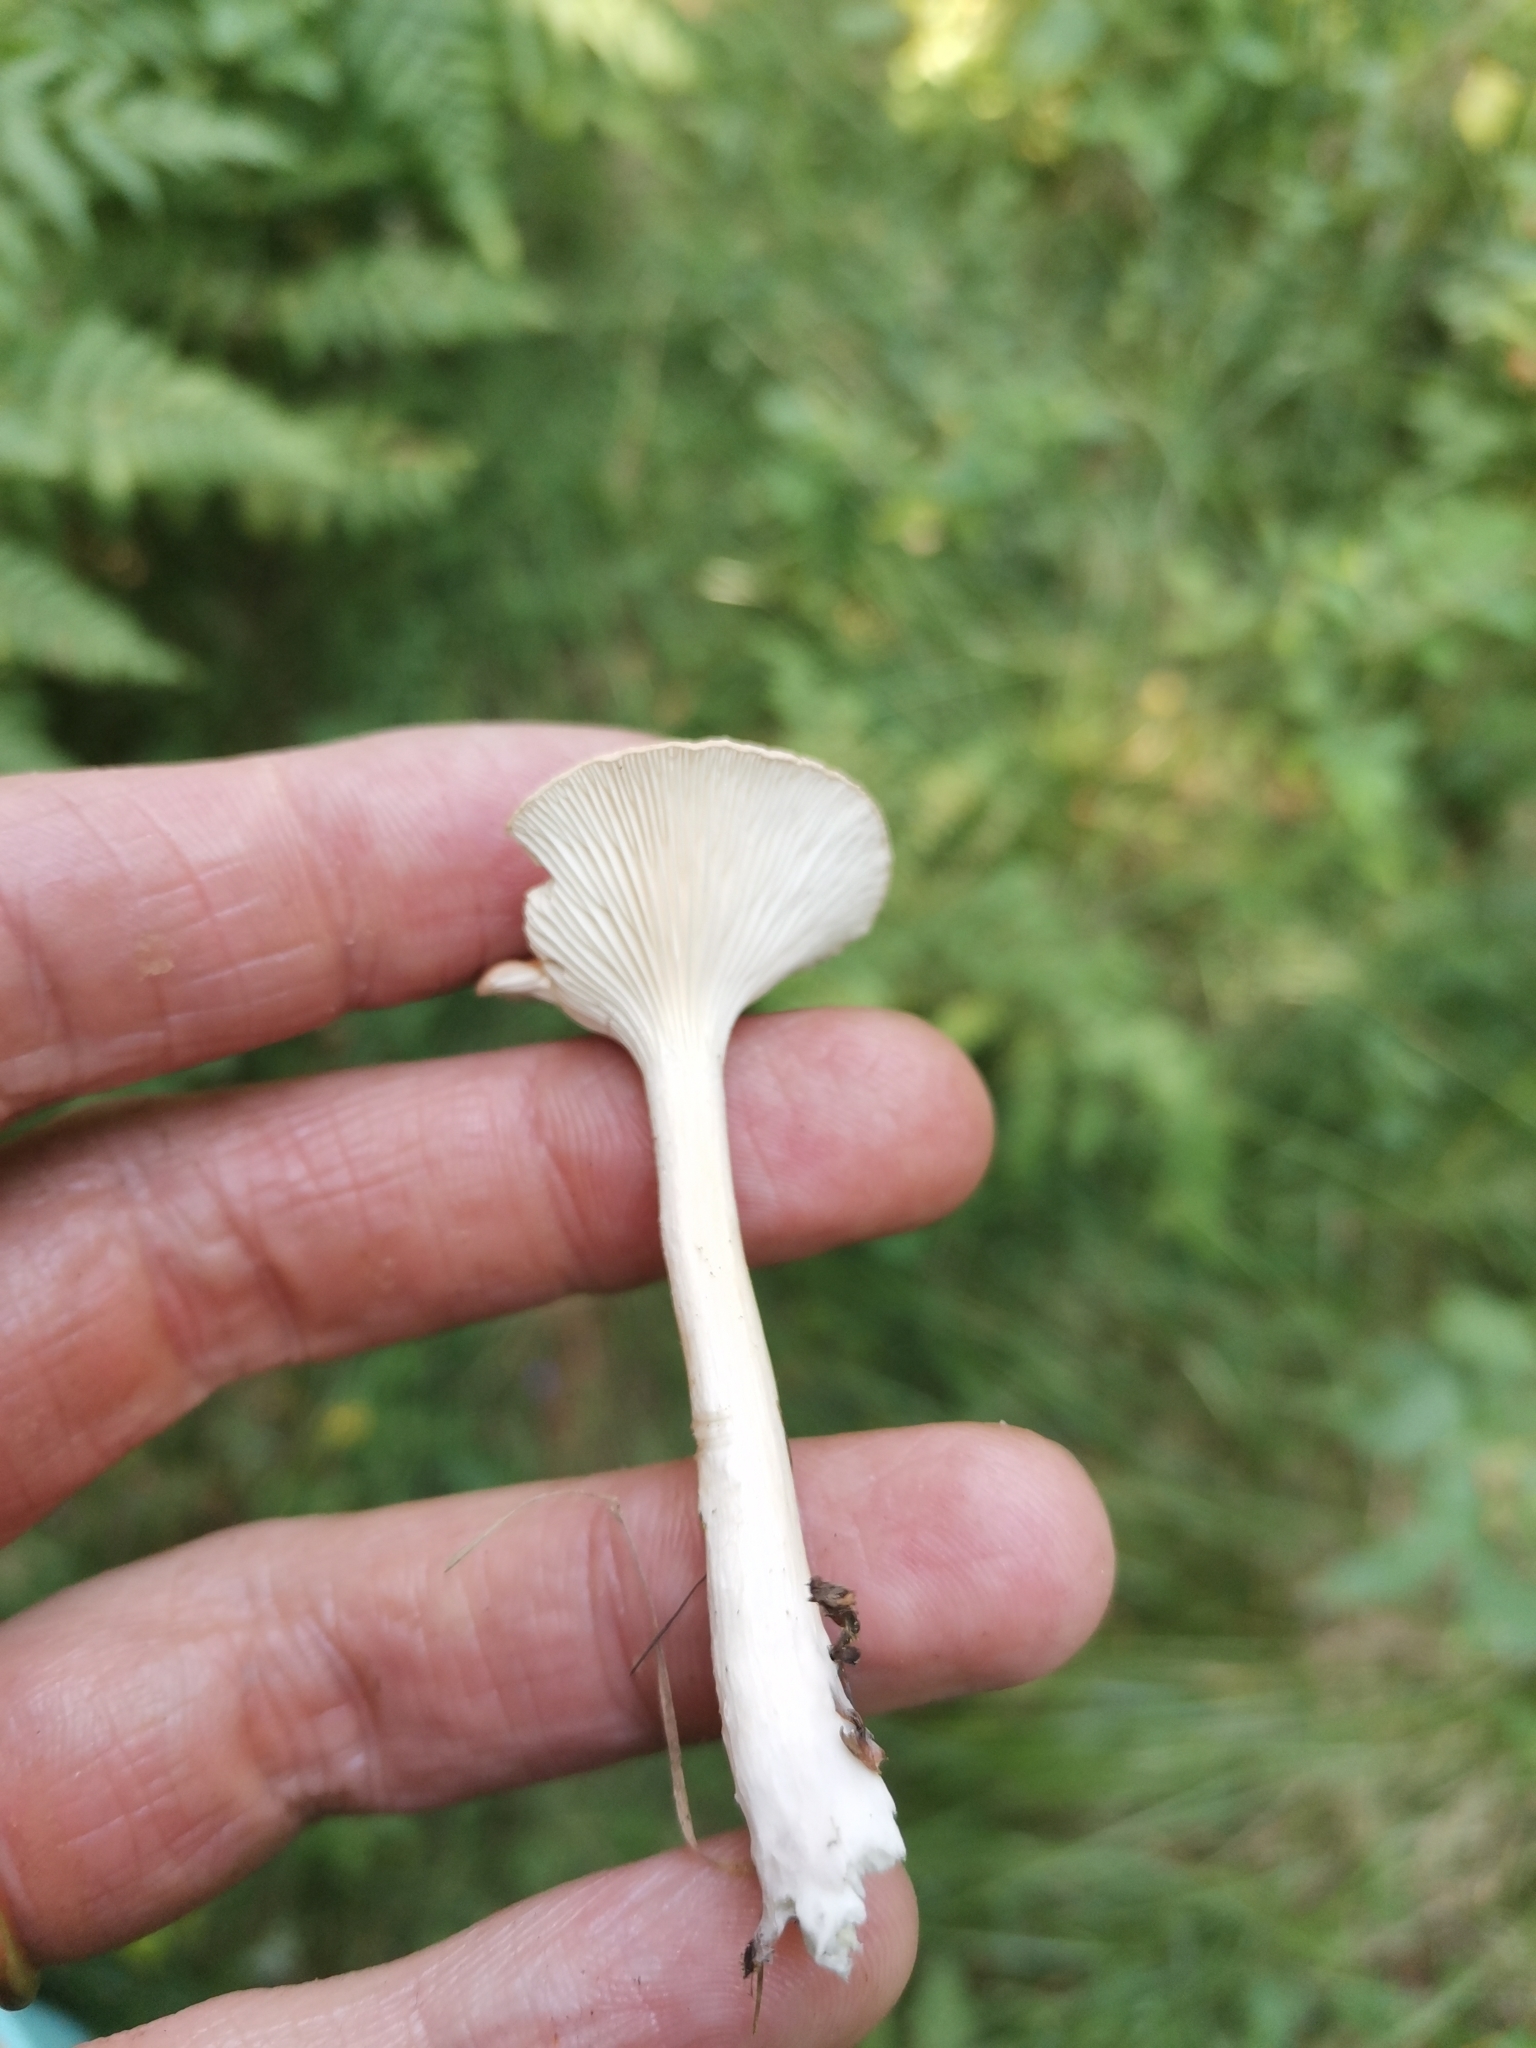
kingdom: Fungi
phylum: Basidiomycota
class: Agaricomycetes
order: Agaricales
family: Tricholomataceae
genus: Infundibulicybe
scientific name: Infundibulicybe gibba
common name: Common funnel
